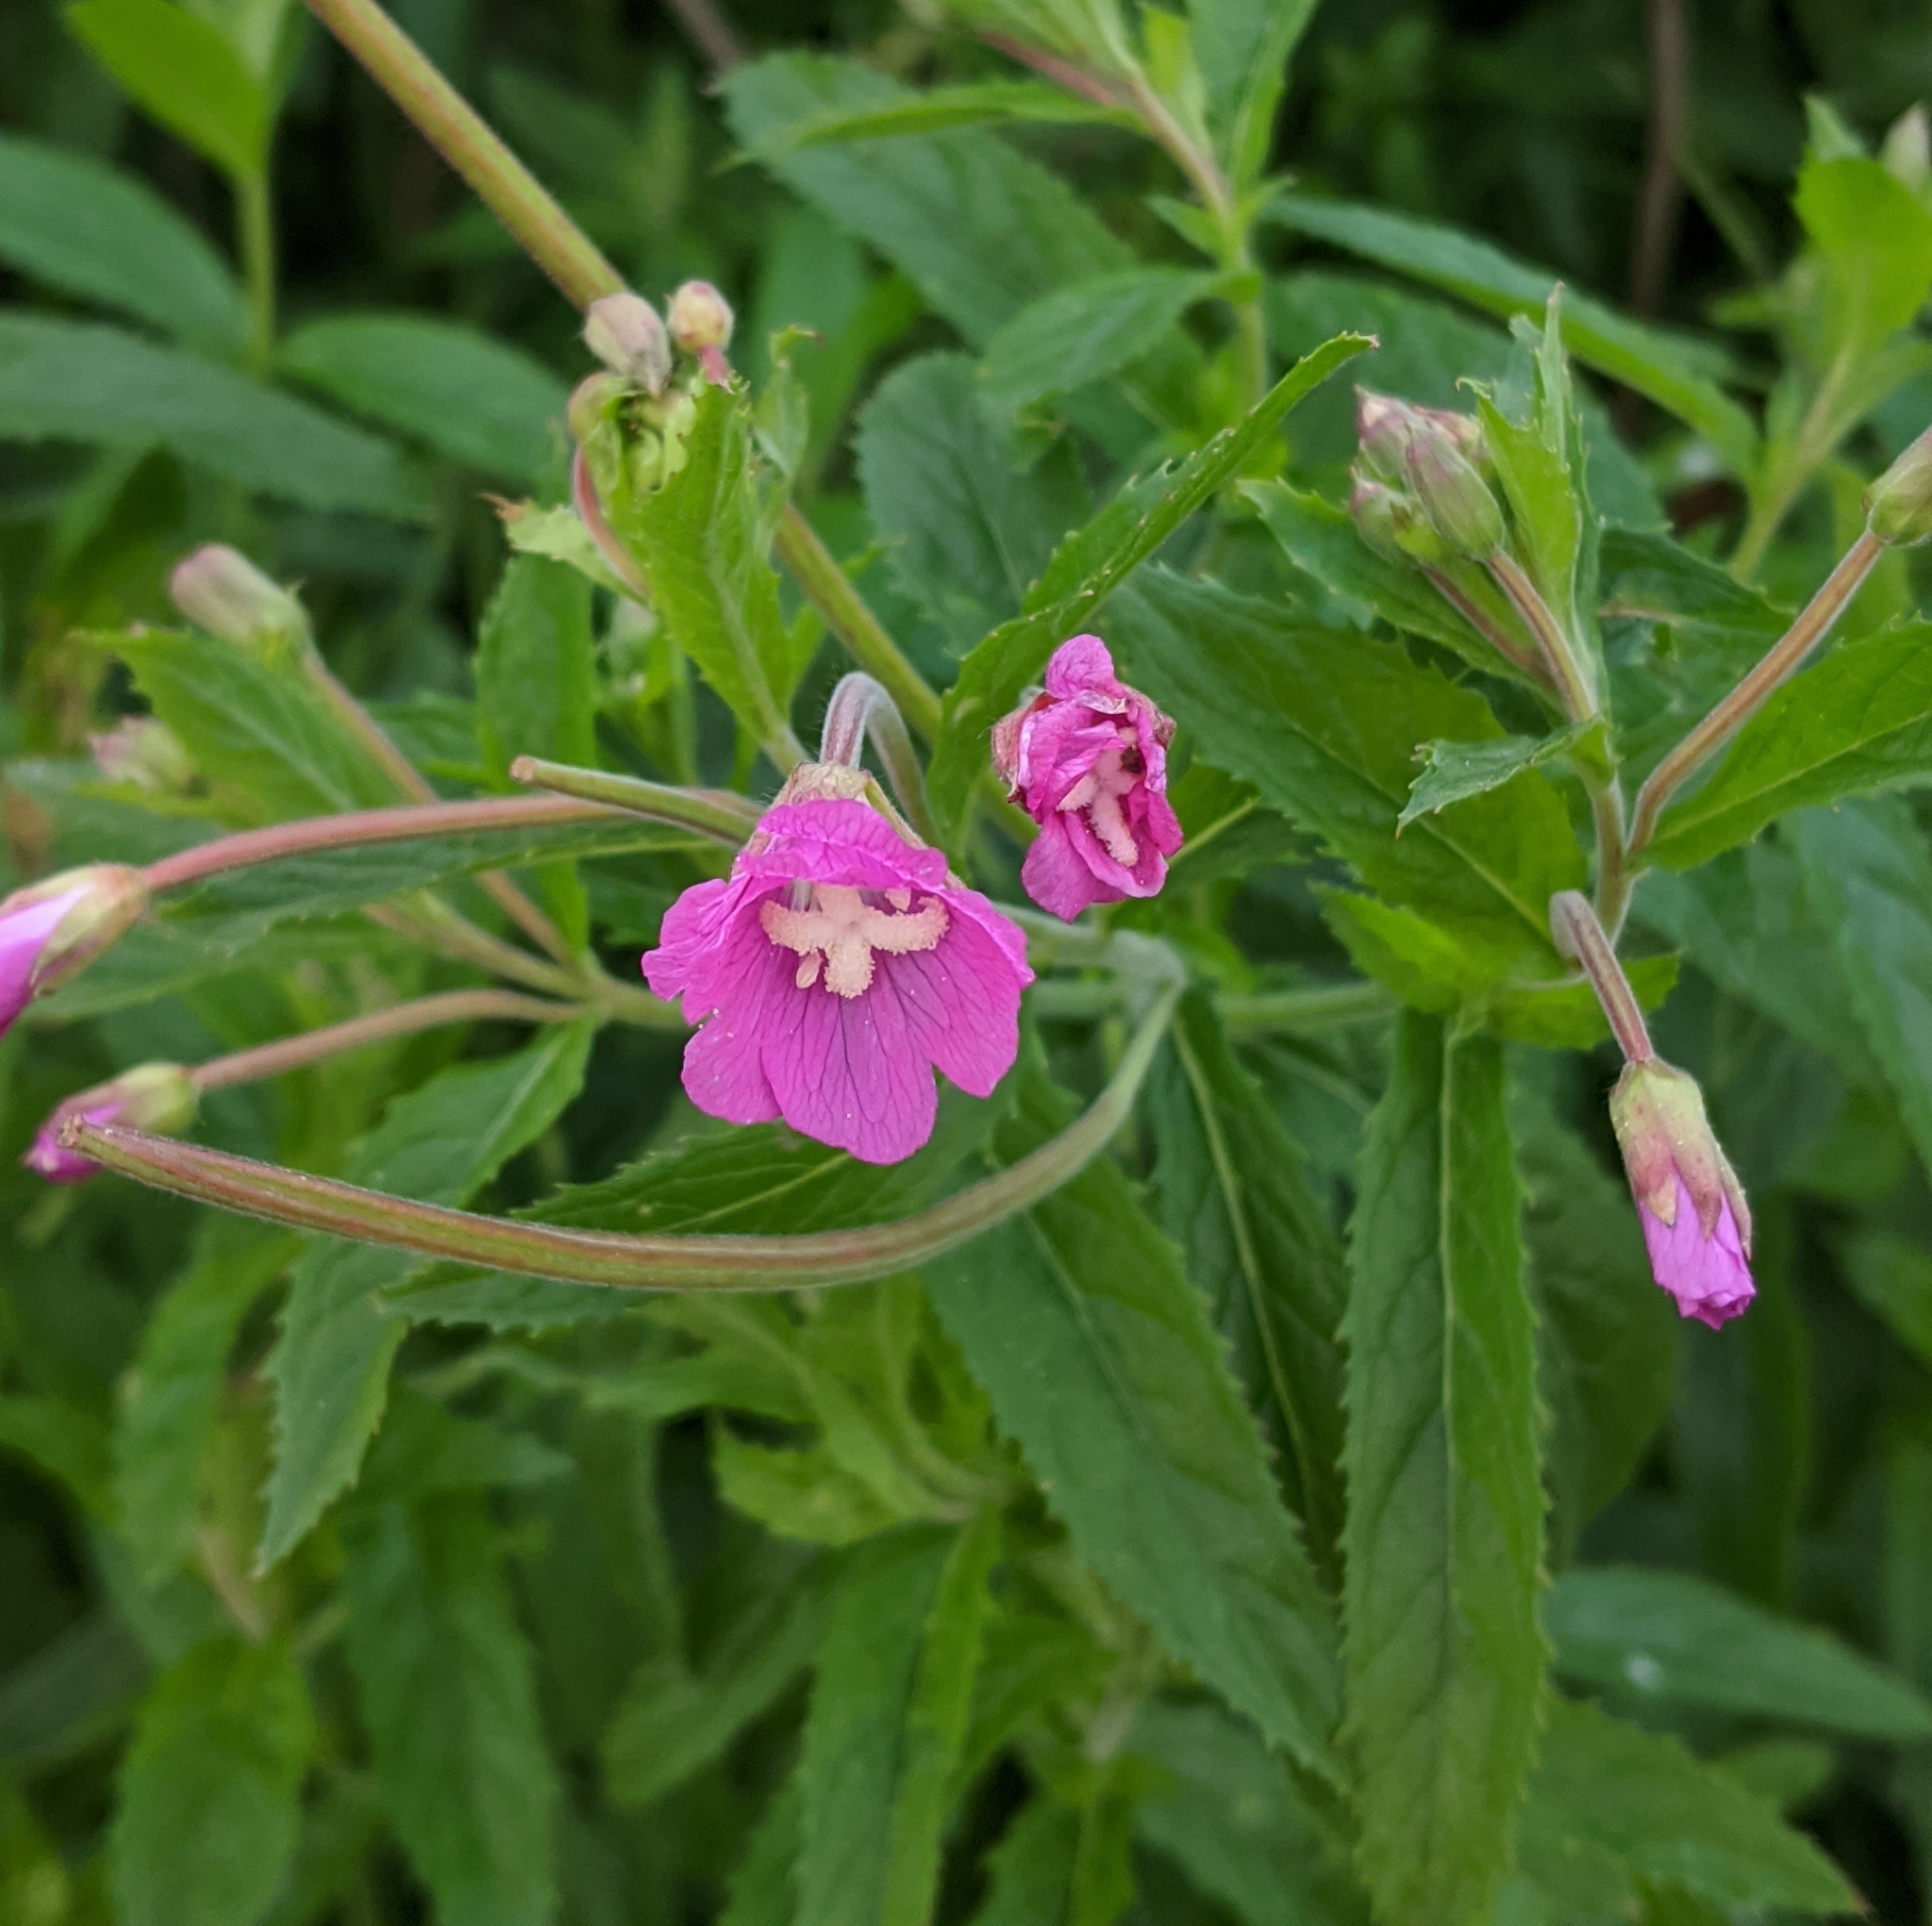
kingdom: Plantae
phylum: Tracheophyta
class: Magnoliopsida
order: Myrtales
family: Onagraceae
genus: Epilobium
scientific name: Epilobium hirsutum
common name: Great willowherb
